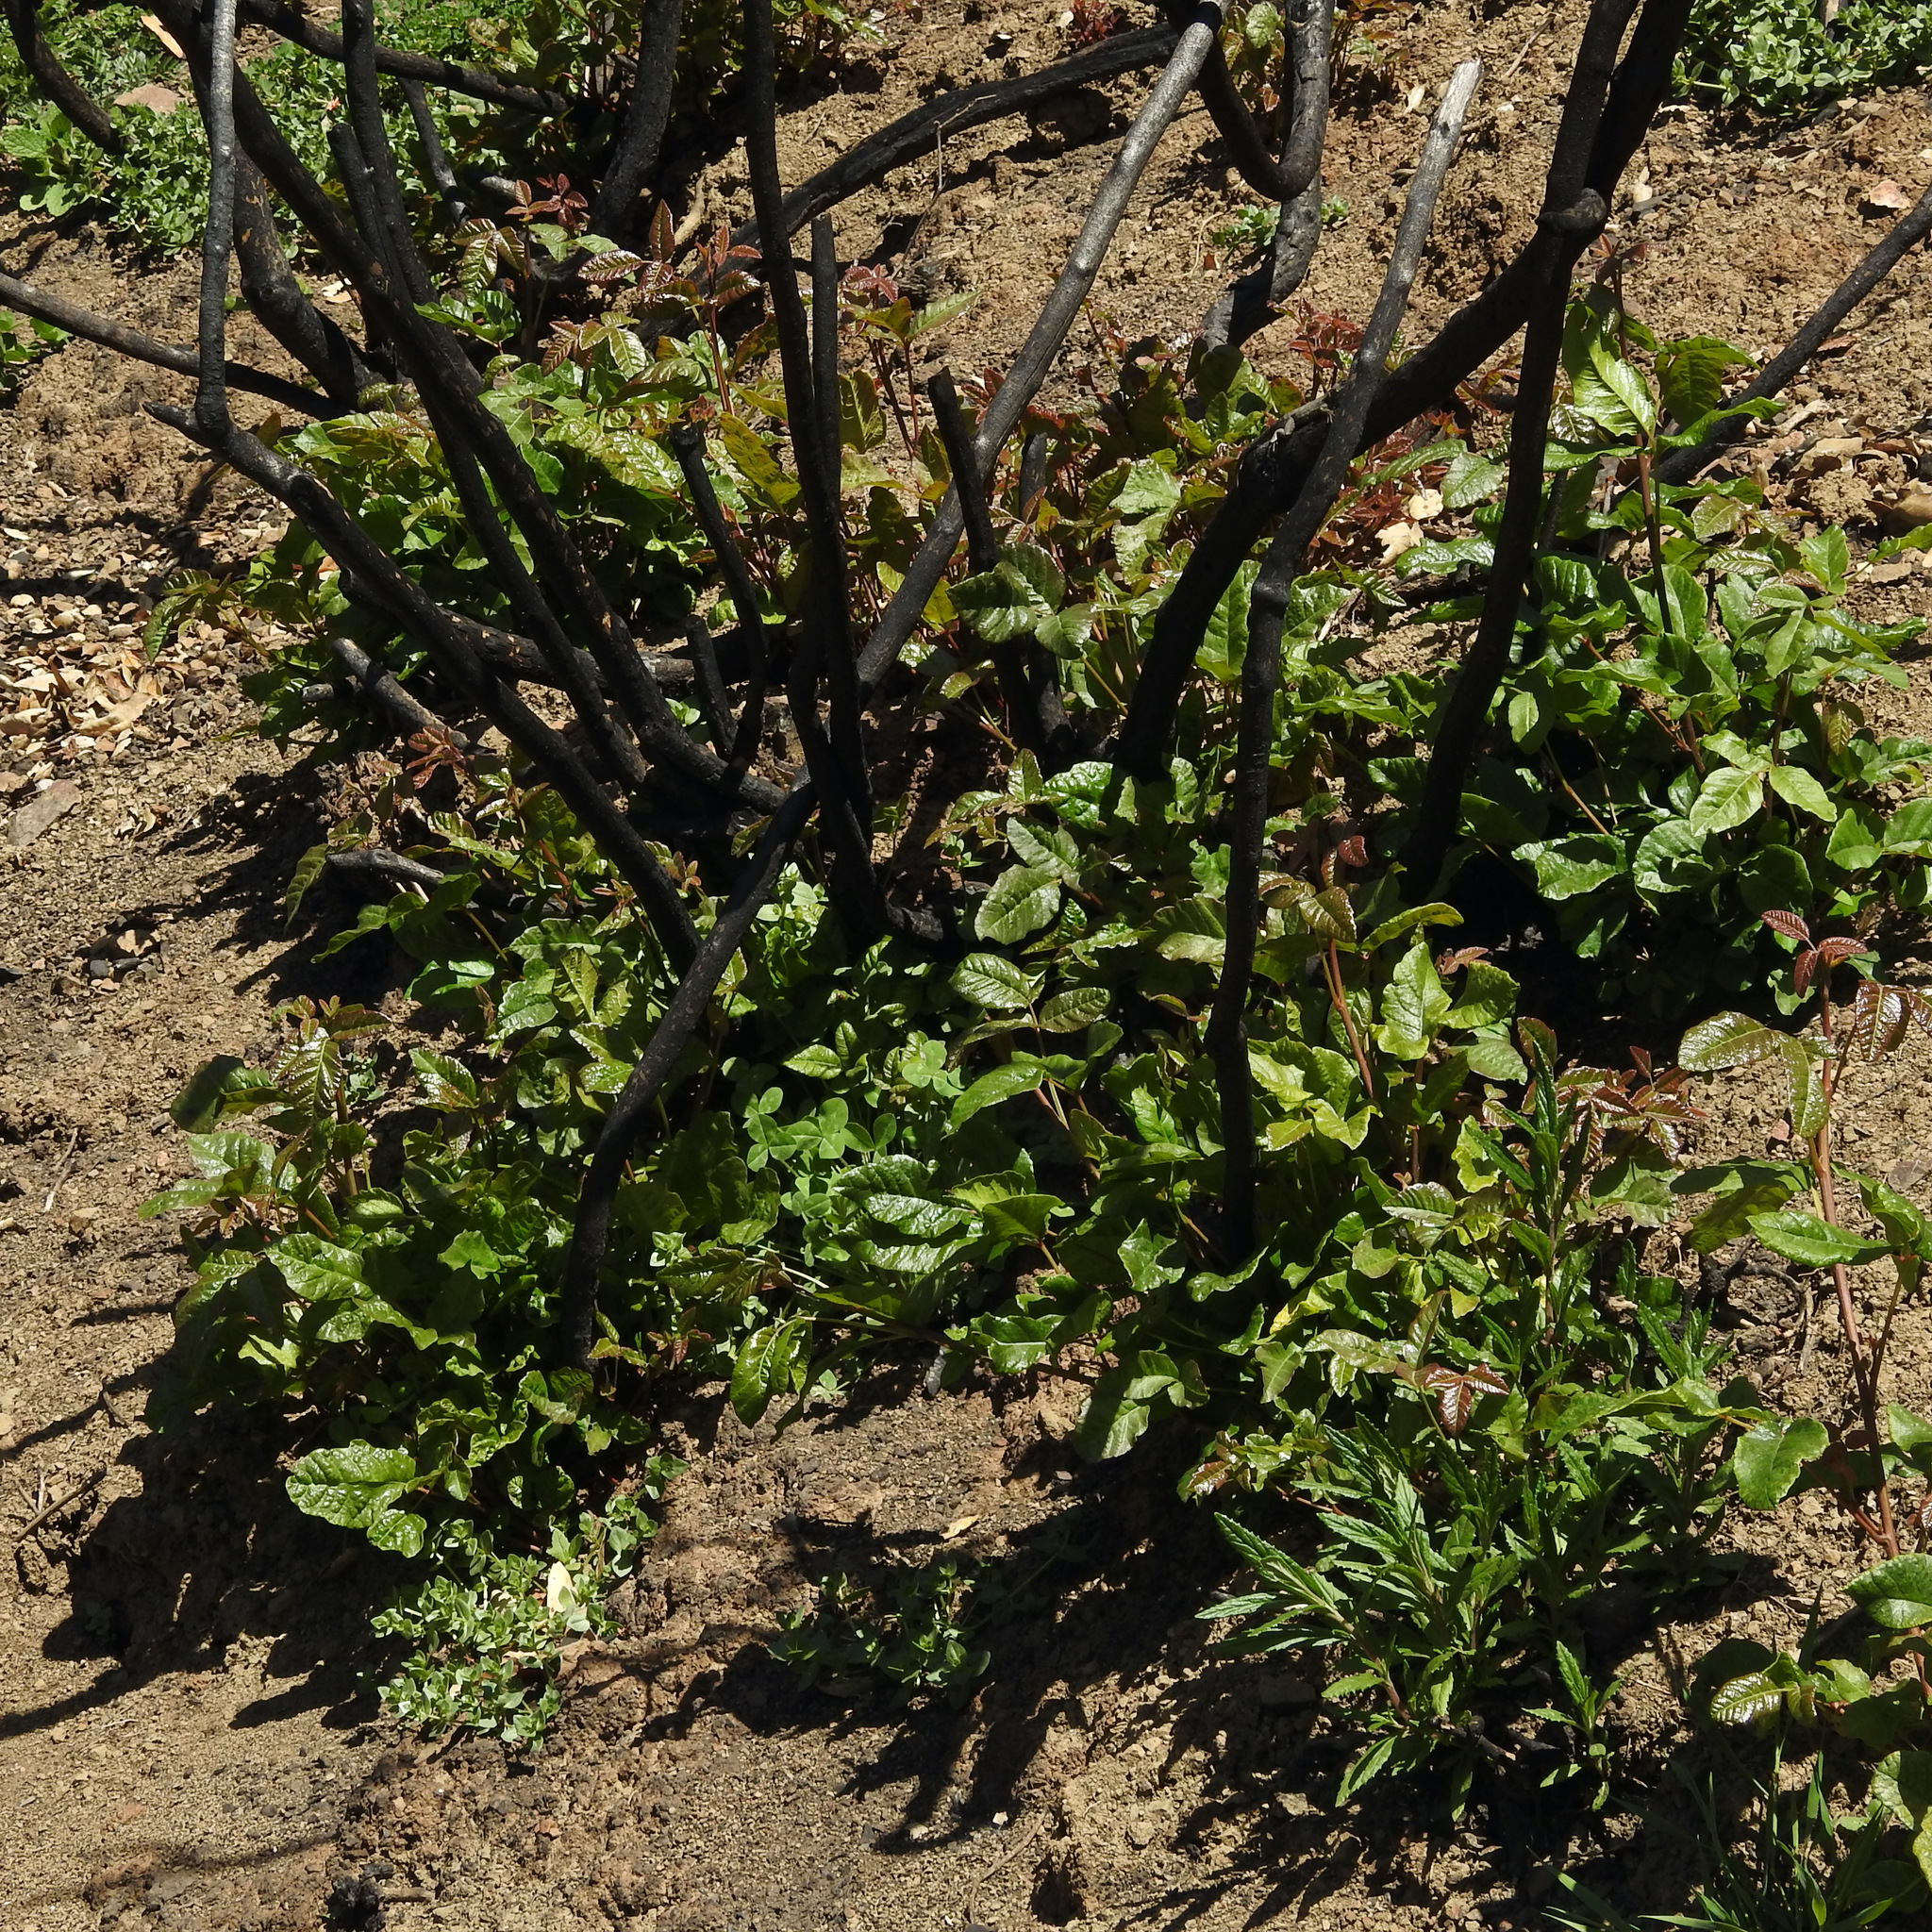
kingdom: Plantae
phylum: Tracheophyta
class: Magnoliopsida
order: Sapindales
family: Anacardiaceae
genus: Toxicodendron
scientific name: Toxicodendron diversilobum
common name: Pacific poison-oak
